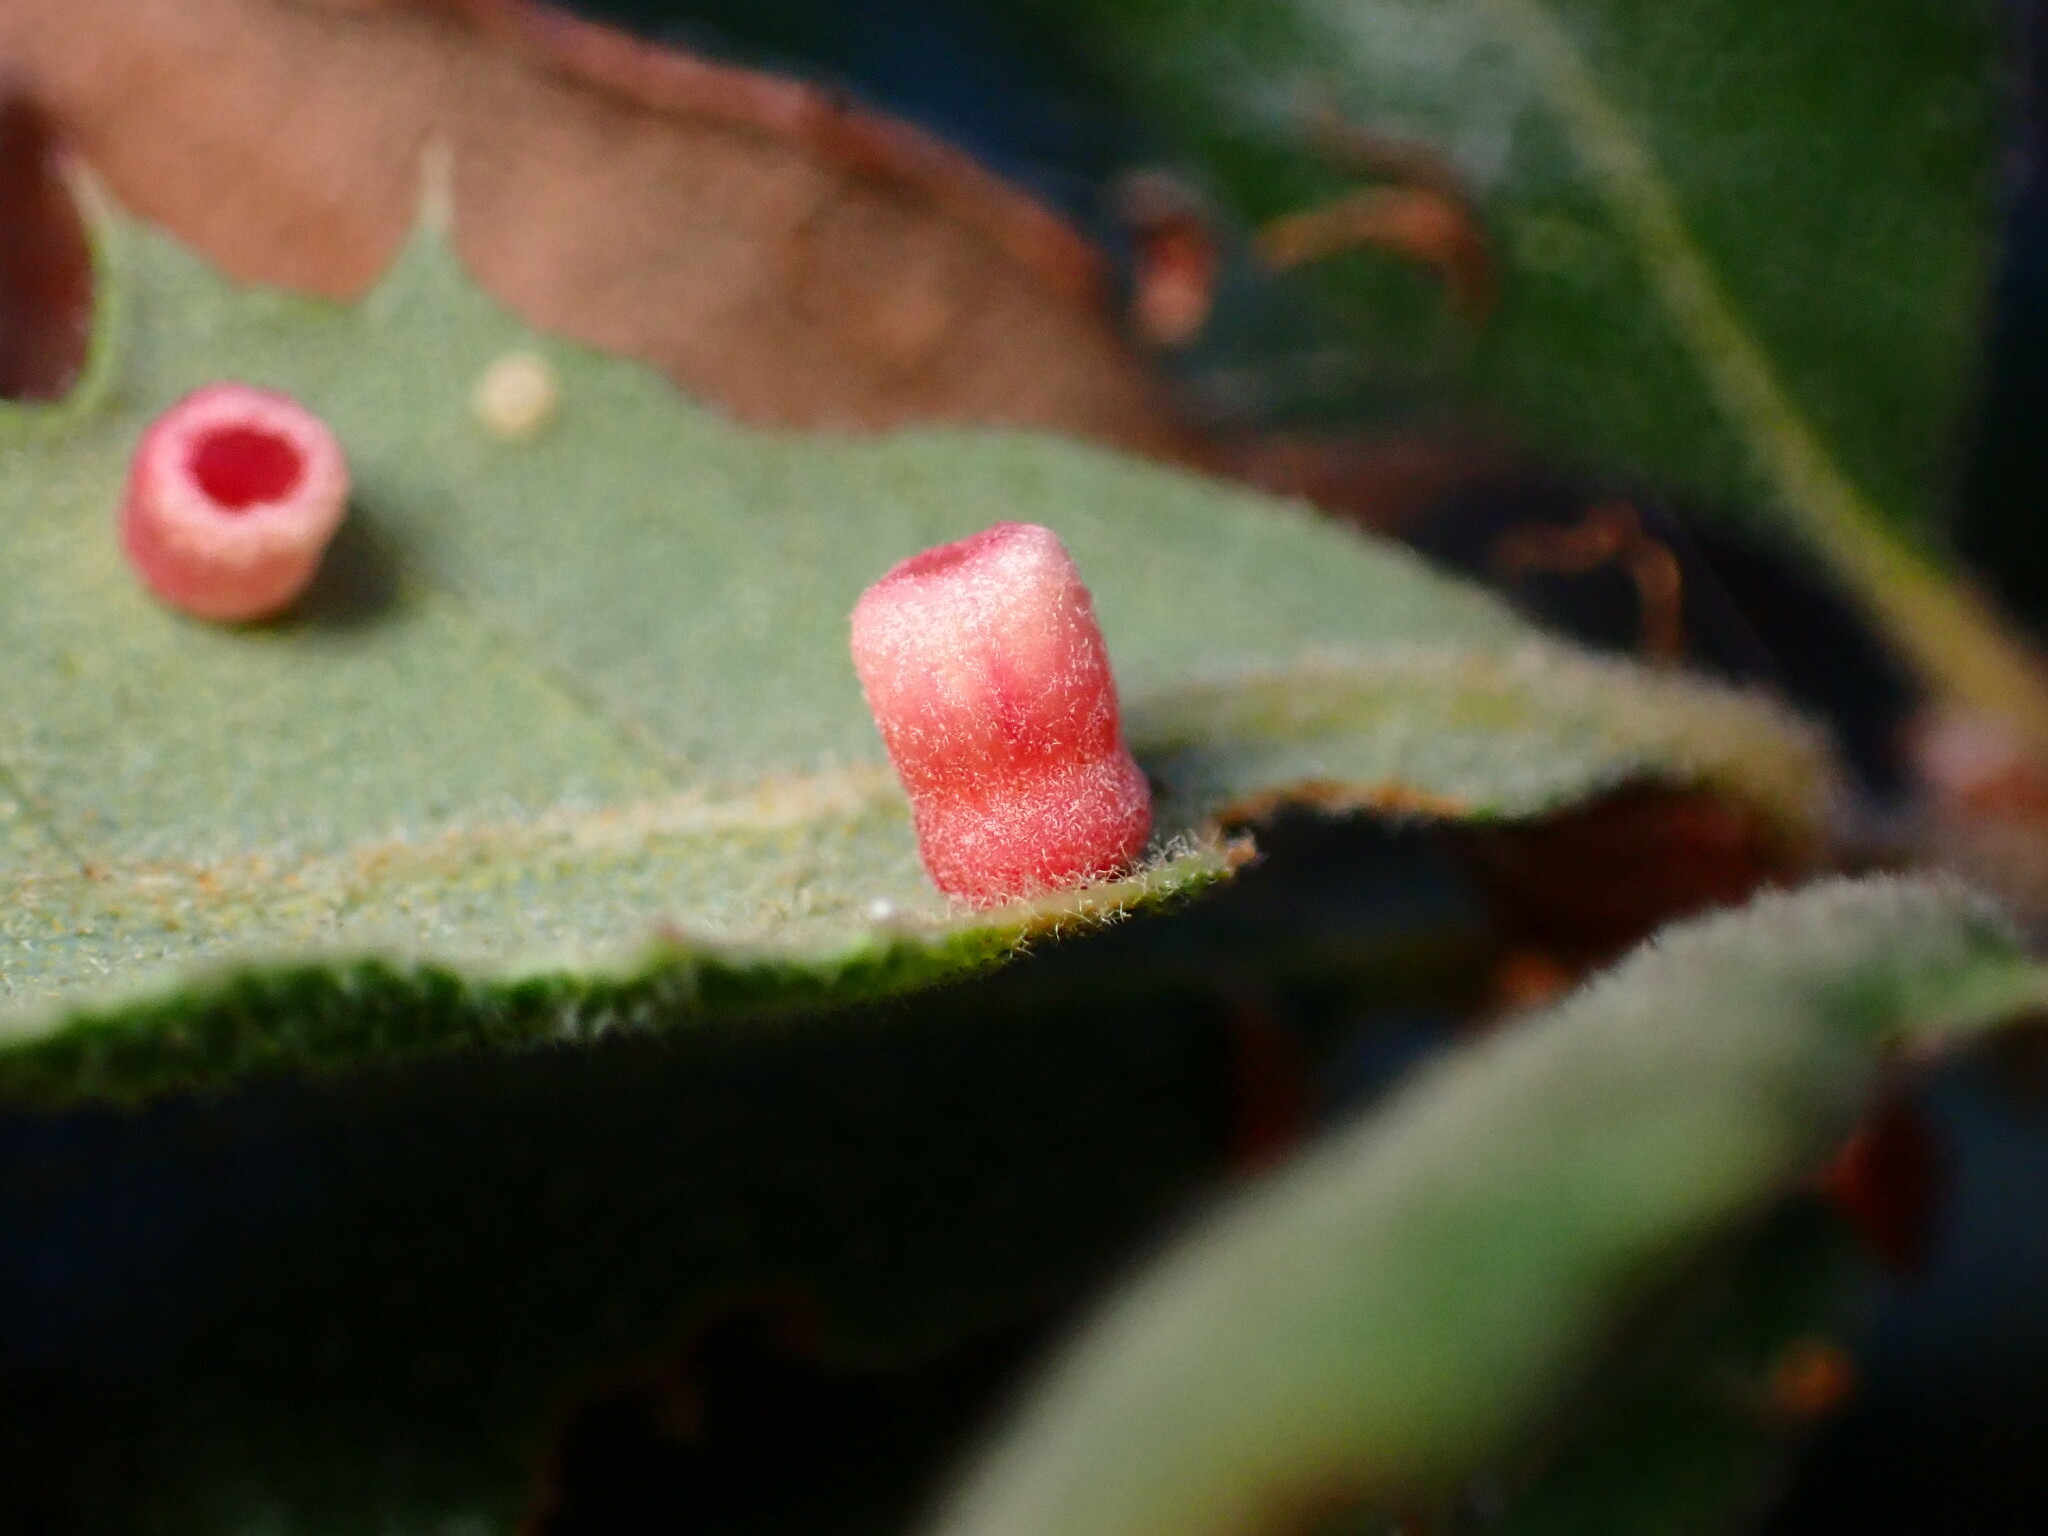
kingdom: Animalia
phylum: Arthropoda
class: Insecta
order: Hymenoptera
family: Cynipidae
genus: Phylloteras
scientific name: Phylloteras
